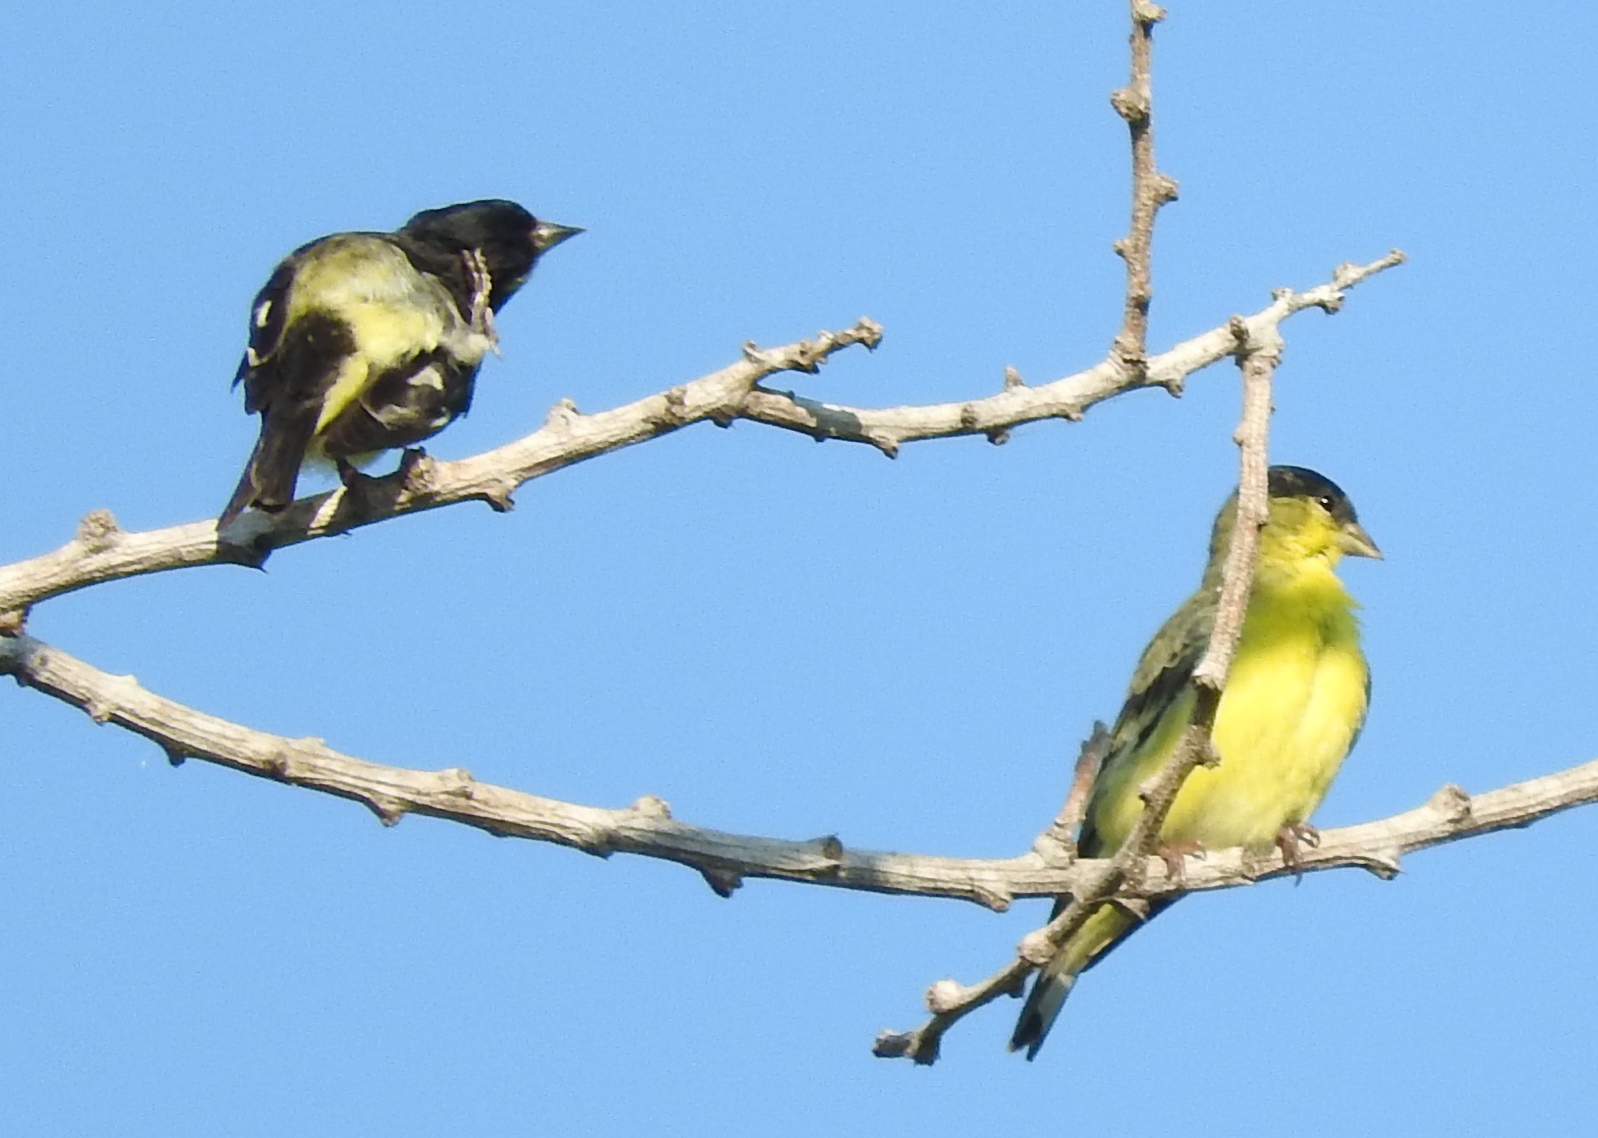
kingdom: Animalia
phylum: Chordata
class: Aves
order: Passeriformes
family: Fringillidae
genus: Spinus
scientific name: Spinus psaltria
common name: Lesser goldfinch
